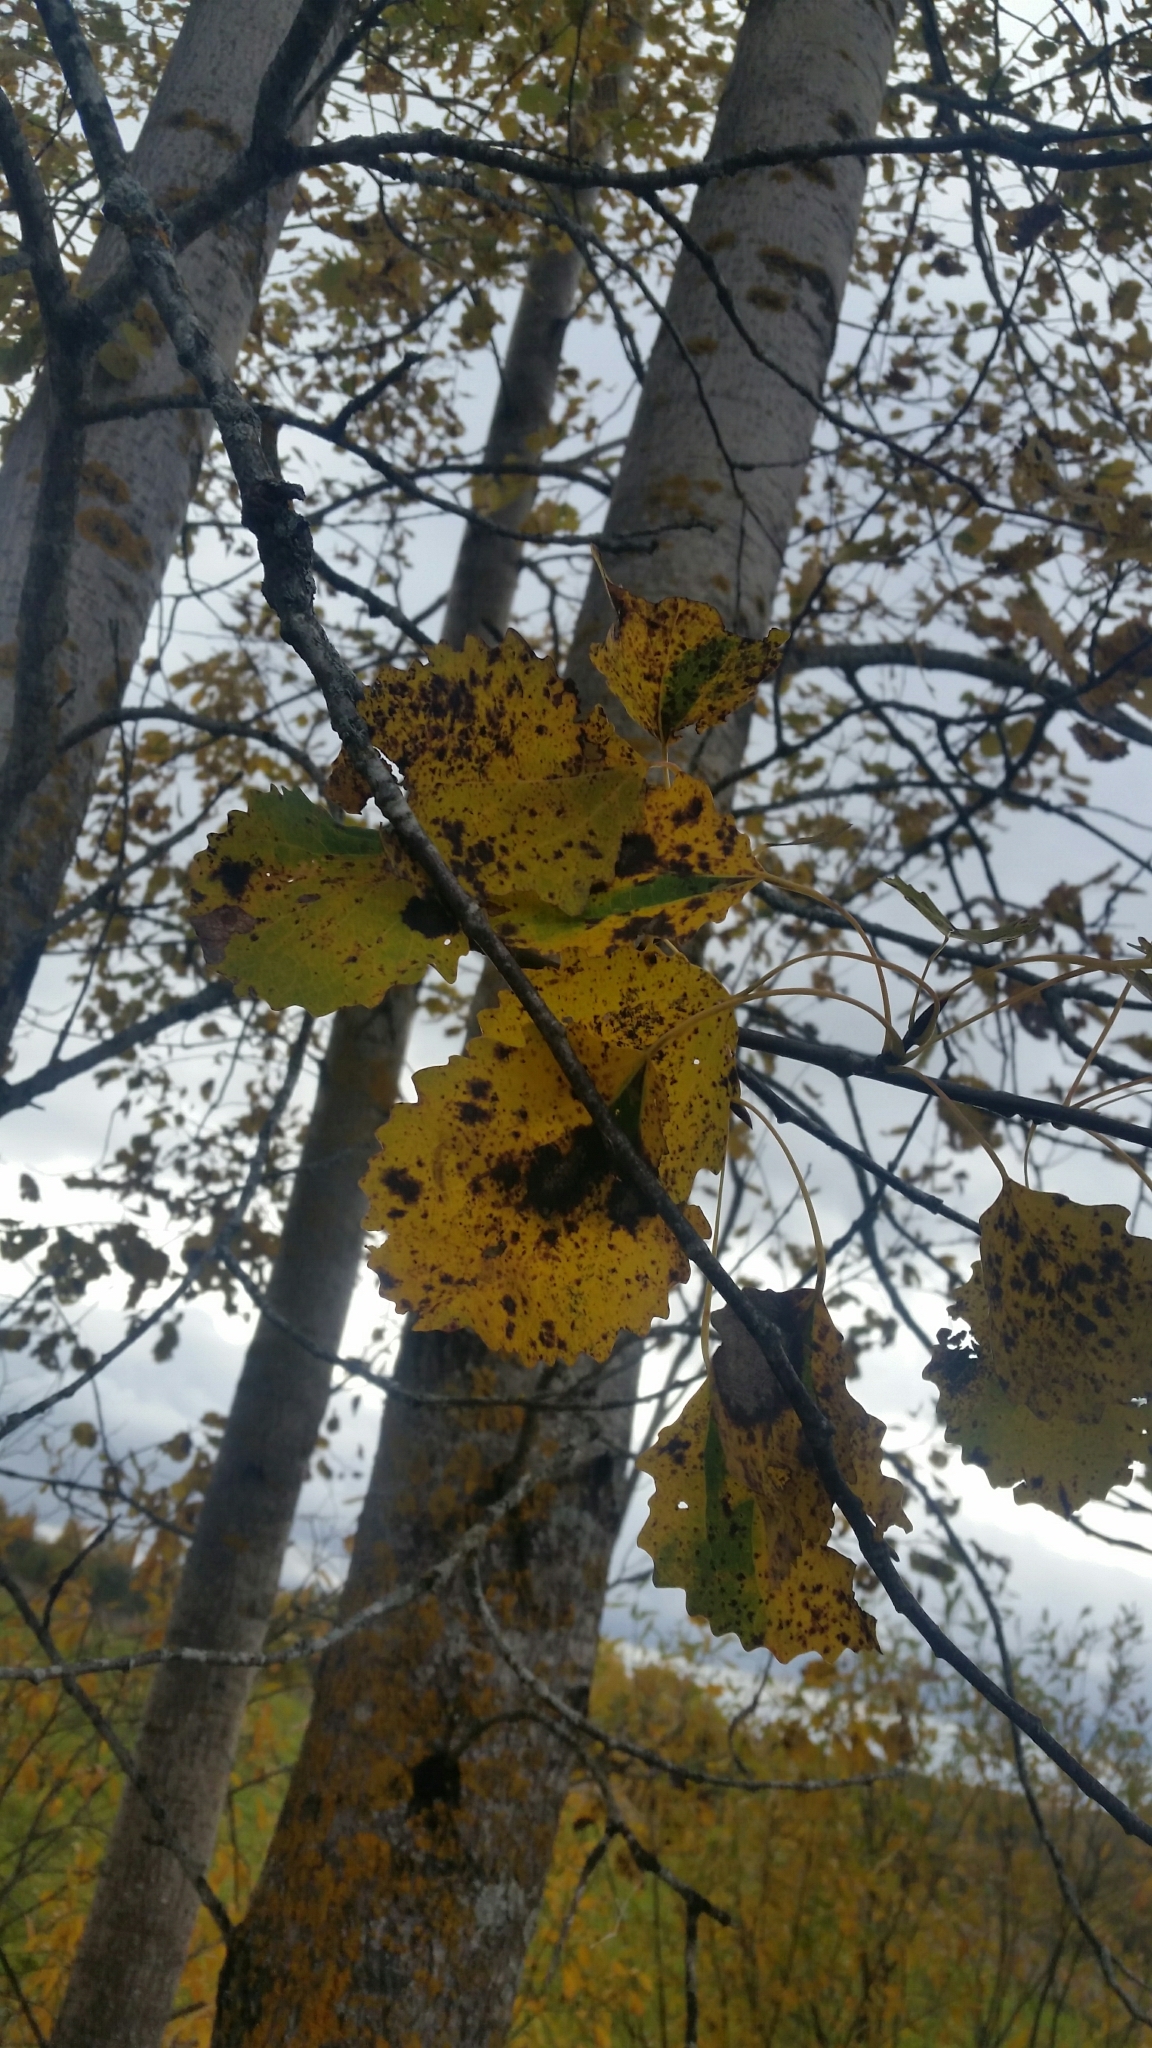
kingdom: Plantae
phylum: Tracheophyta
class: Magnoliopsida
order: Malpighiales
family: Salicaceae
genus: Populus
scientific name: Populus tremula
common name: European aspen
